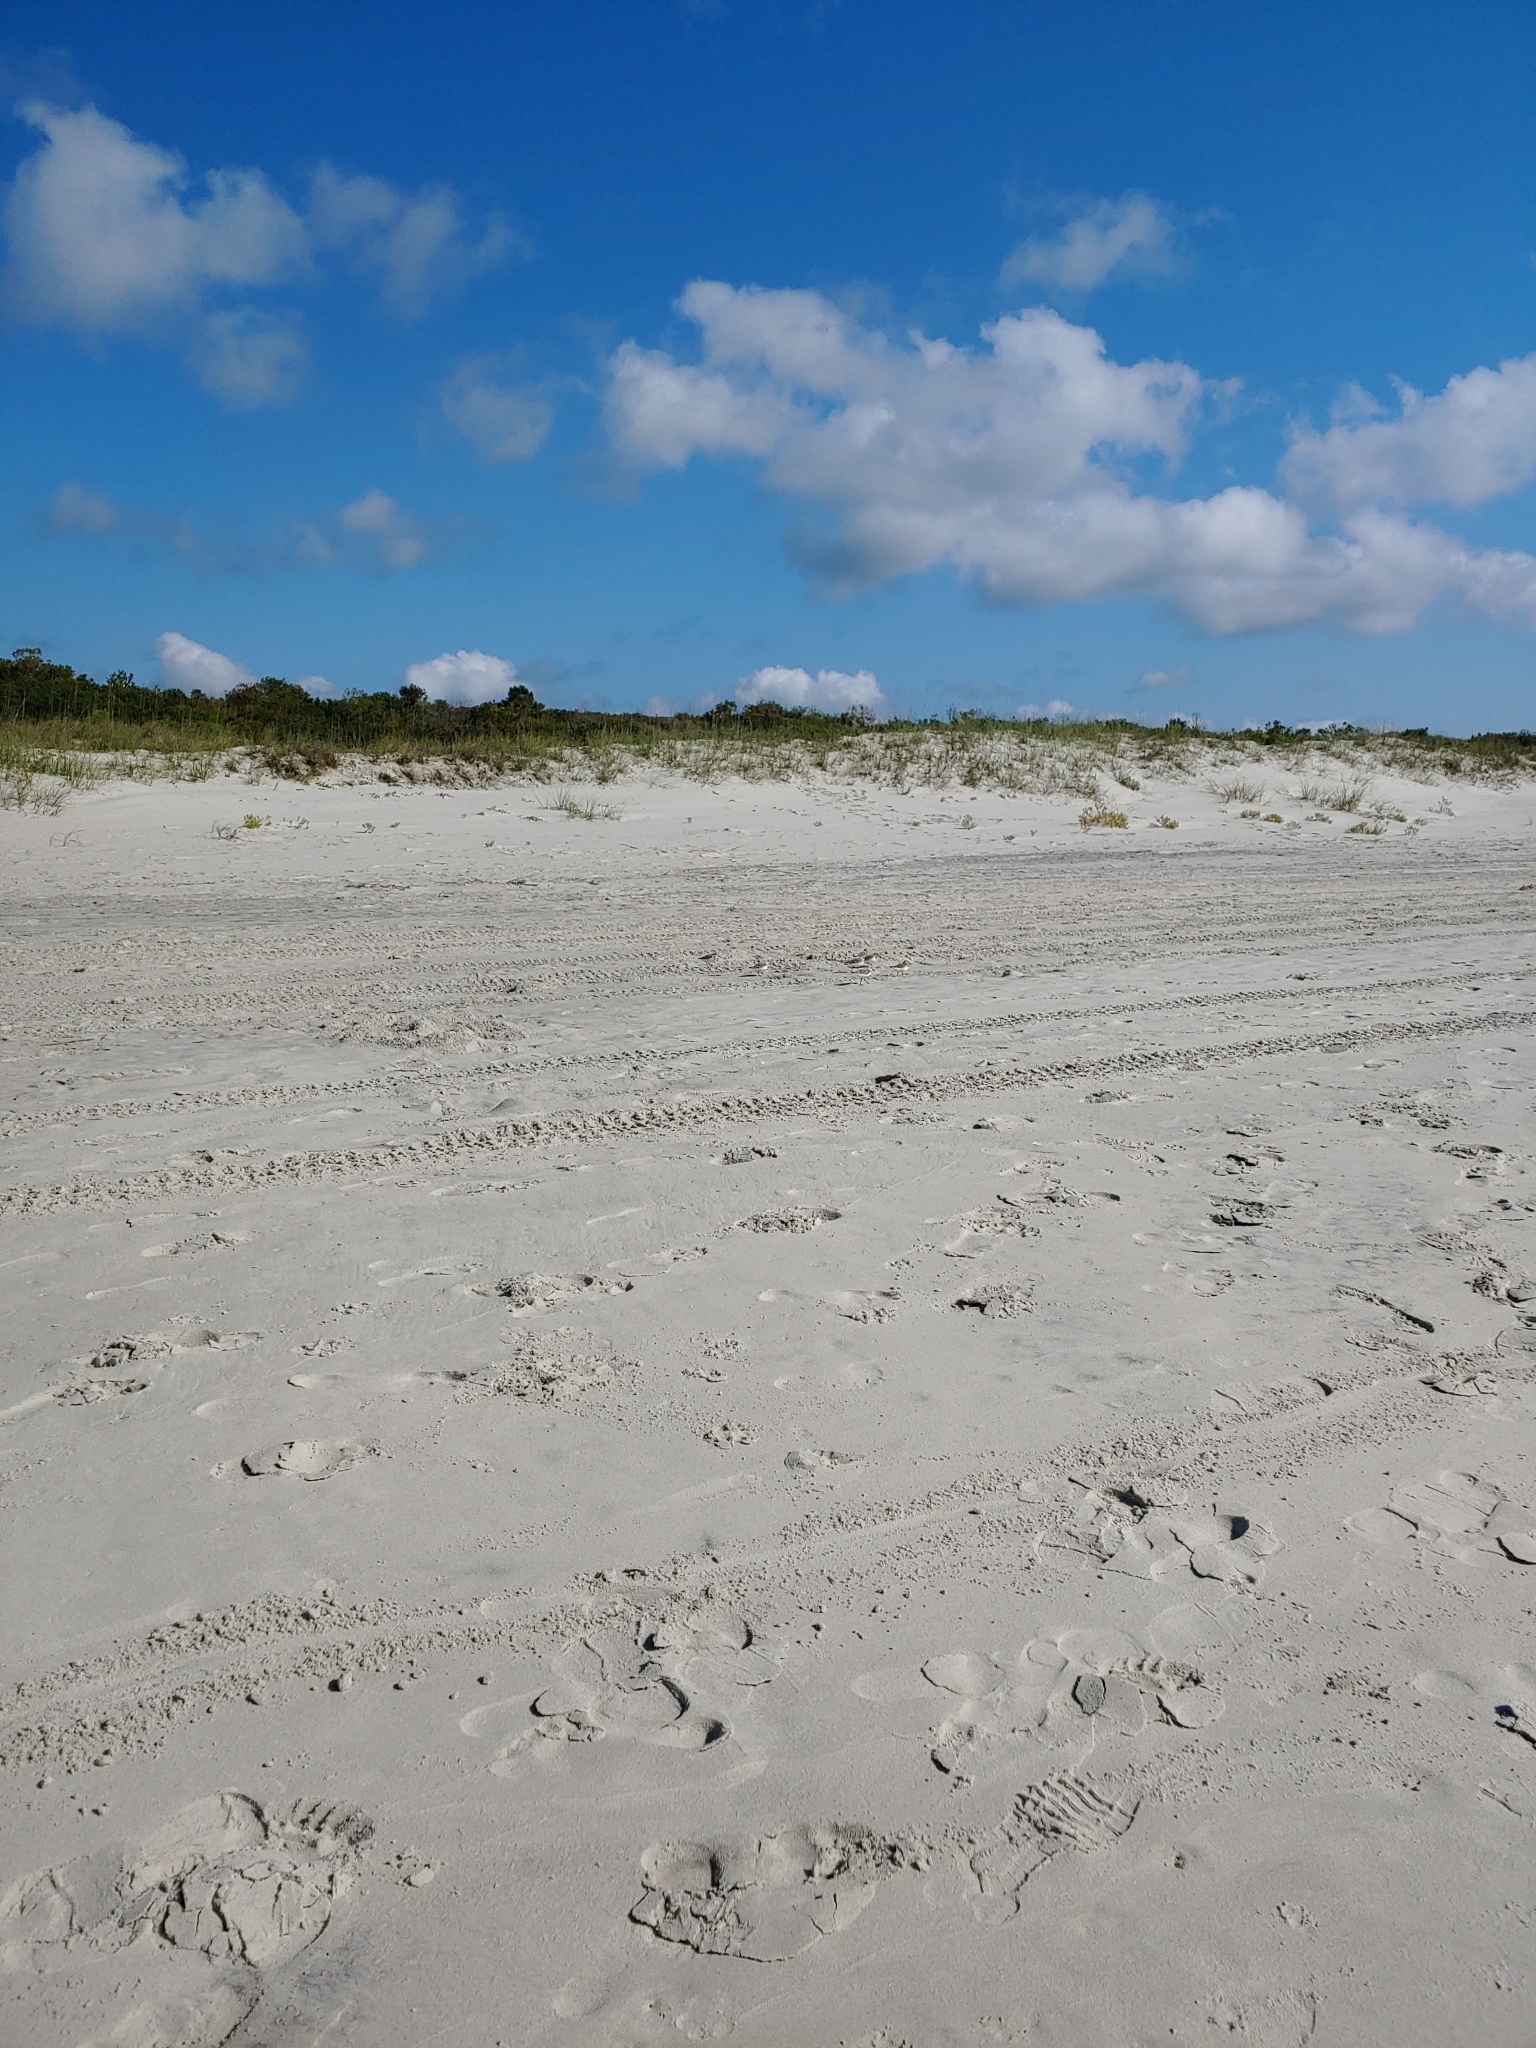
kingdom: Animalia
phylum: Chordata
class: Aves
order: Charadriiformes
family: Scolopacidae
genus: Calidris
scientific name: Calidris alba
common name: Sanderling
